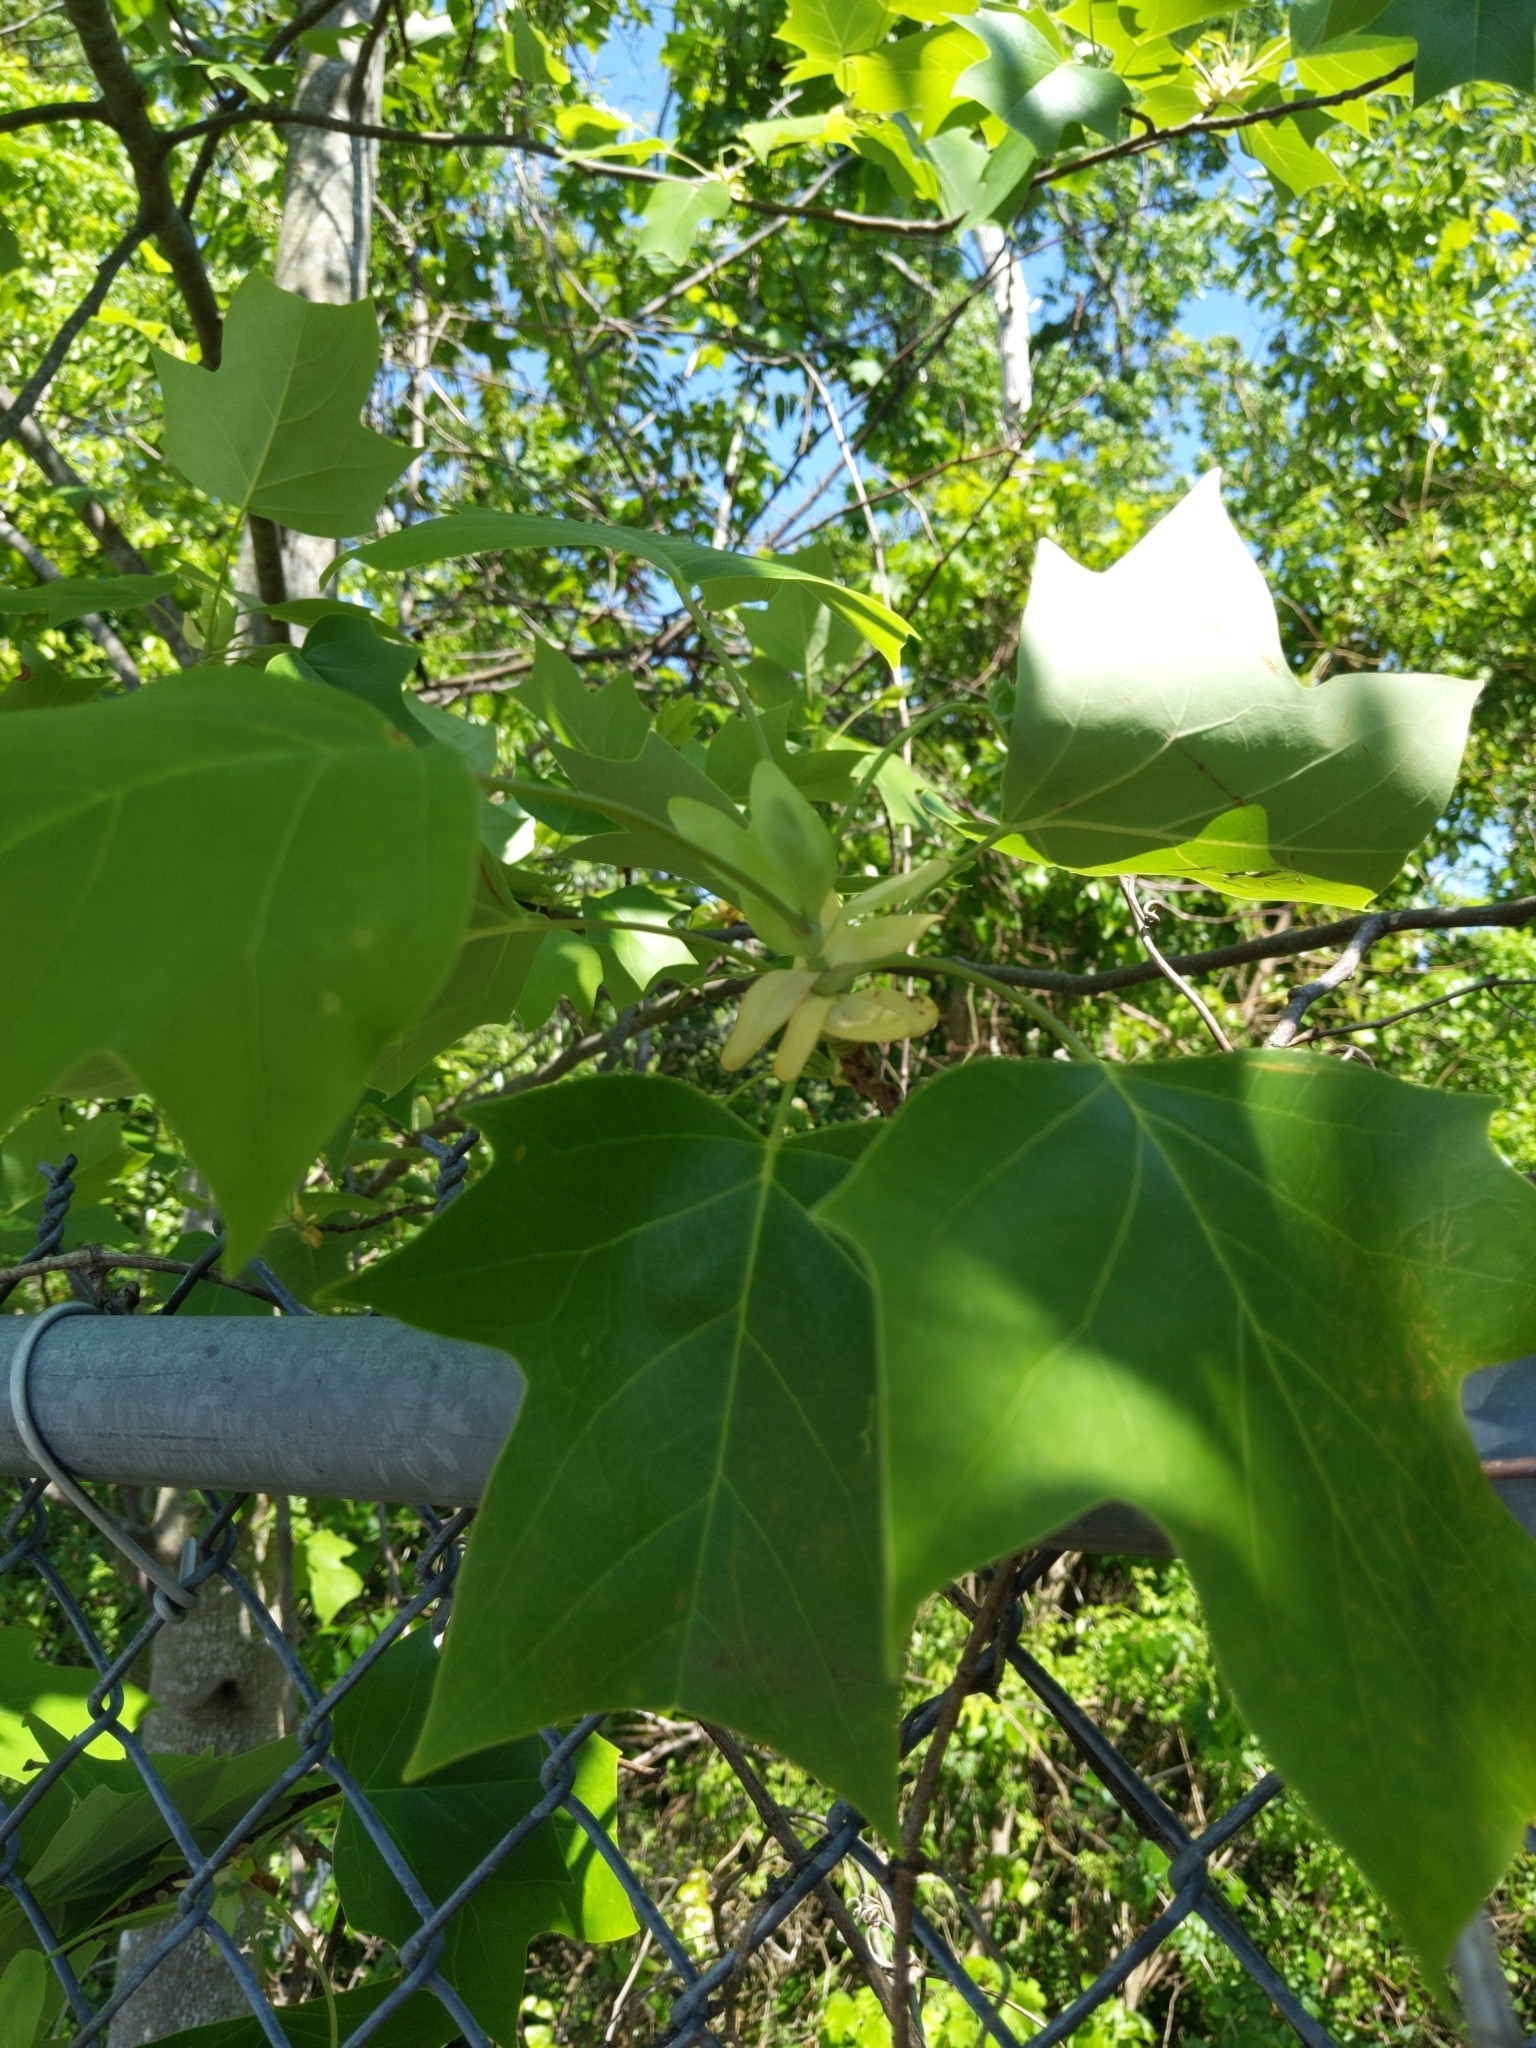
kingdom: Plantae
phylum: Tracheophyta
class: Magnoliopsida
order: Magnoliales
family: Magnoliaceae
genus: Liriodendron
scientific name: Liriodendron tulipifera
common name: Tulip tree
